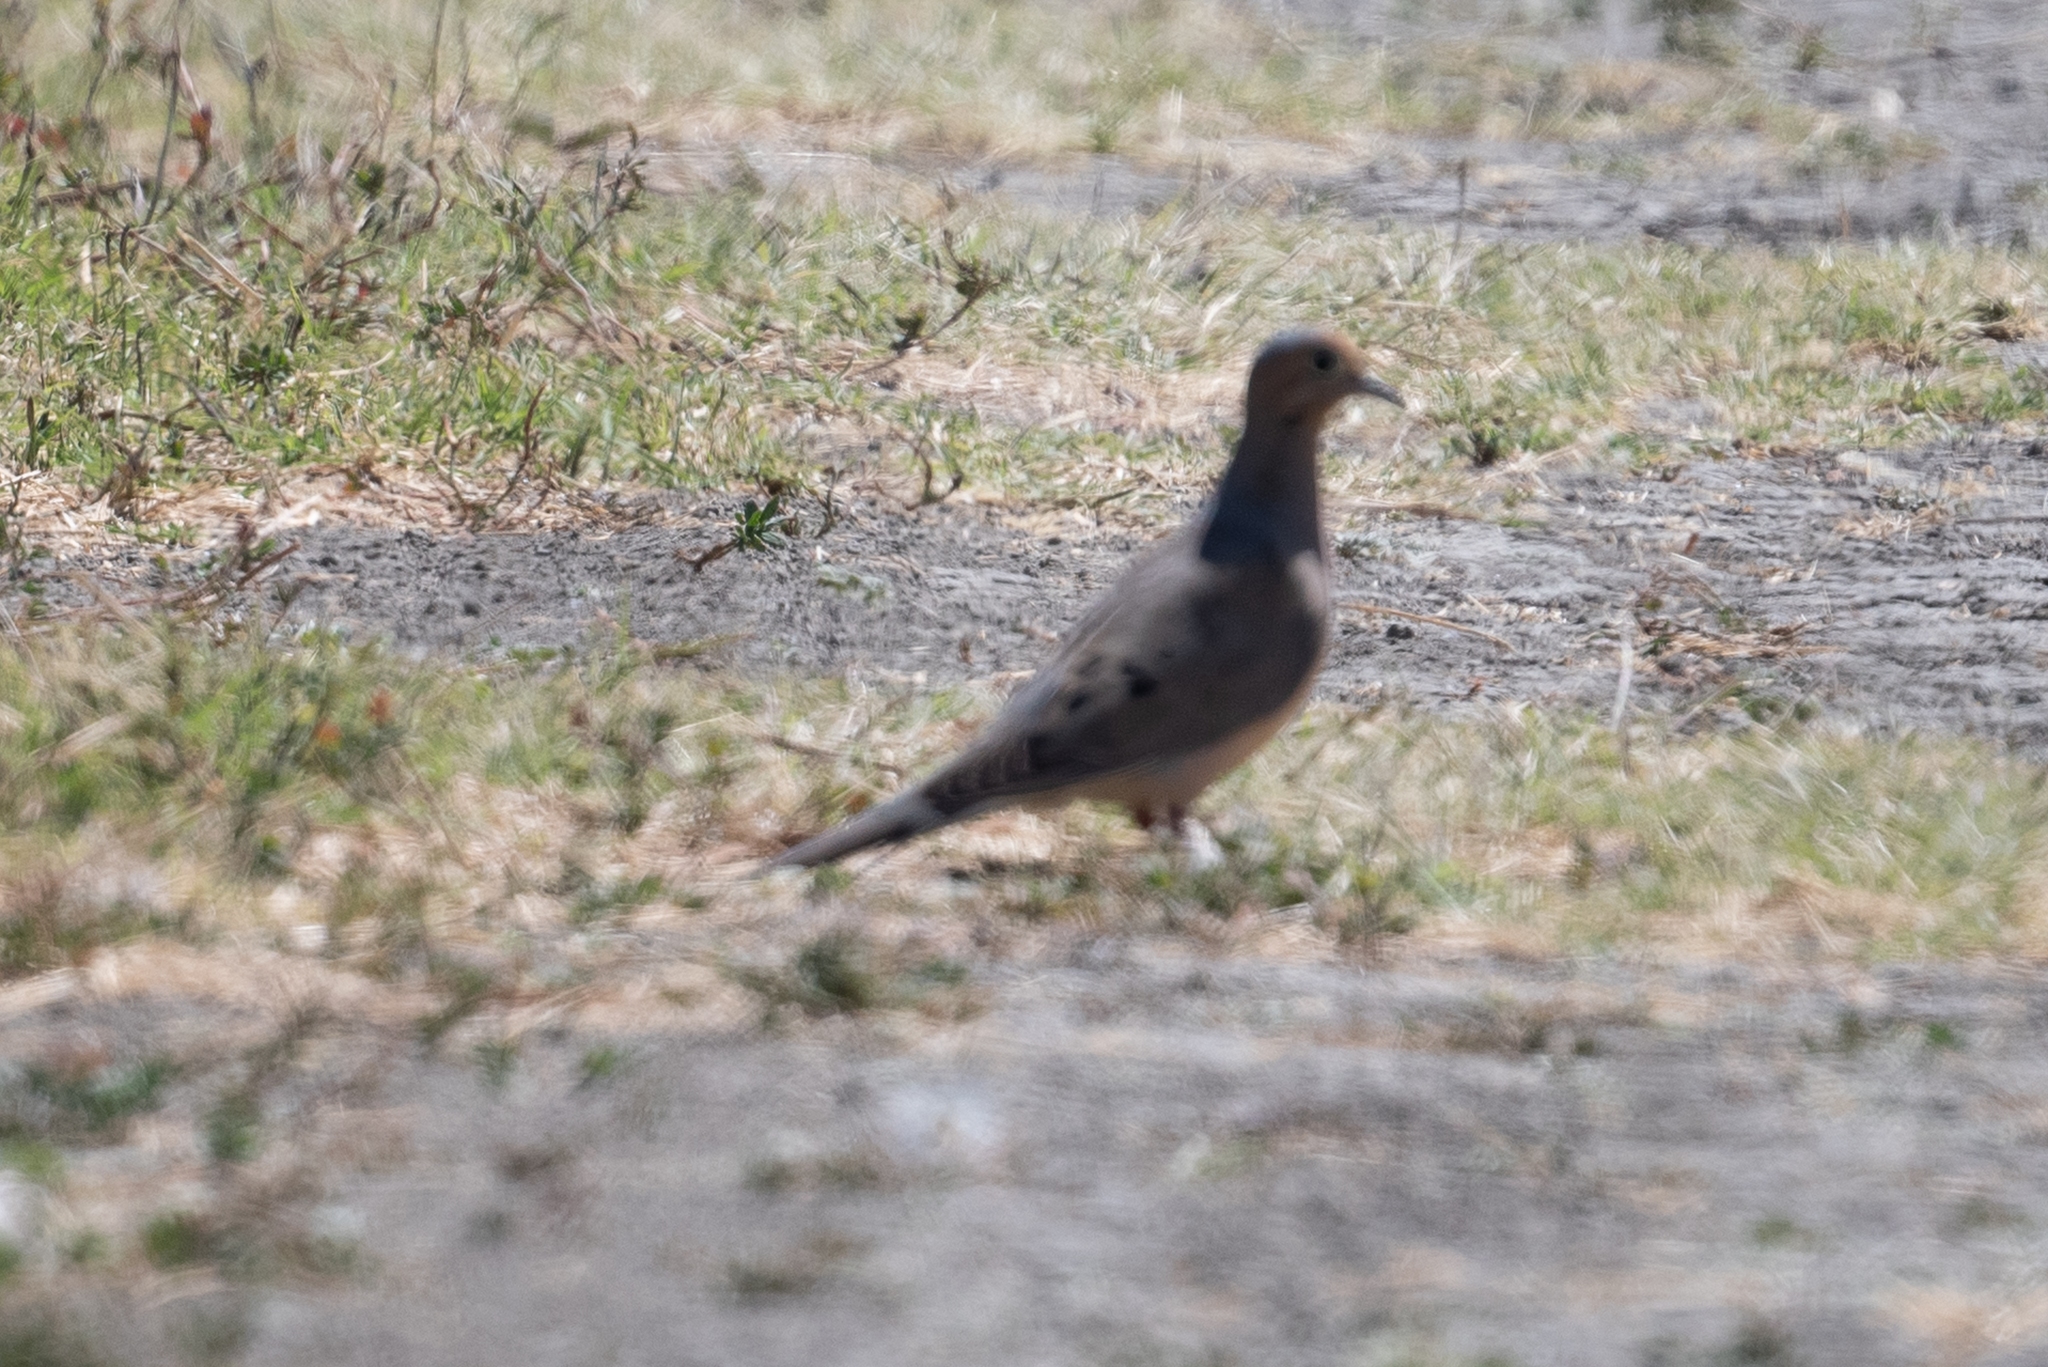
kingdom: Animalia
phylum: Chordata
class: Aves
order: Columbiformes
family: Columbidae
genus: Zenaida
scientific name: Zenaida macroura
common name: Mourning dove
